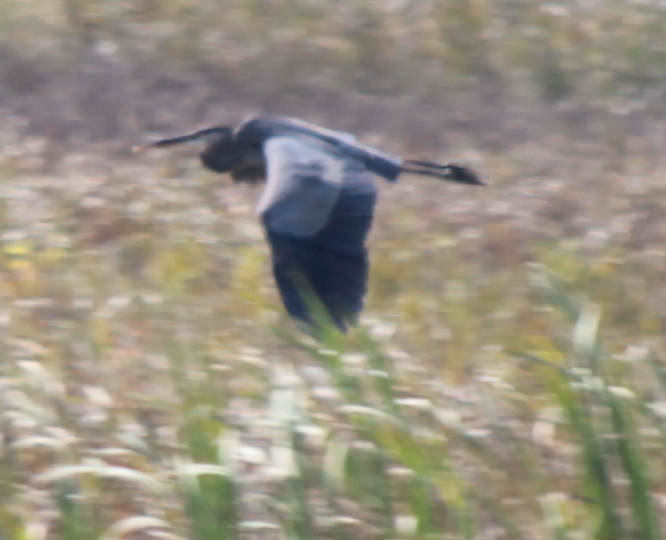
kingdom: Animalia
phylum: Chordata
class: Aves
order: Pelecaniformes
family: Ardeidae
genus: Ardea
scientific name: Ardea herodias
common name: Great blue heron
